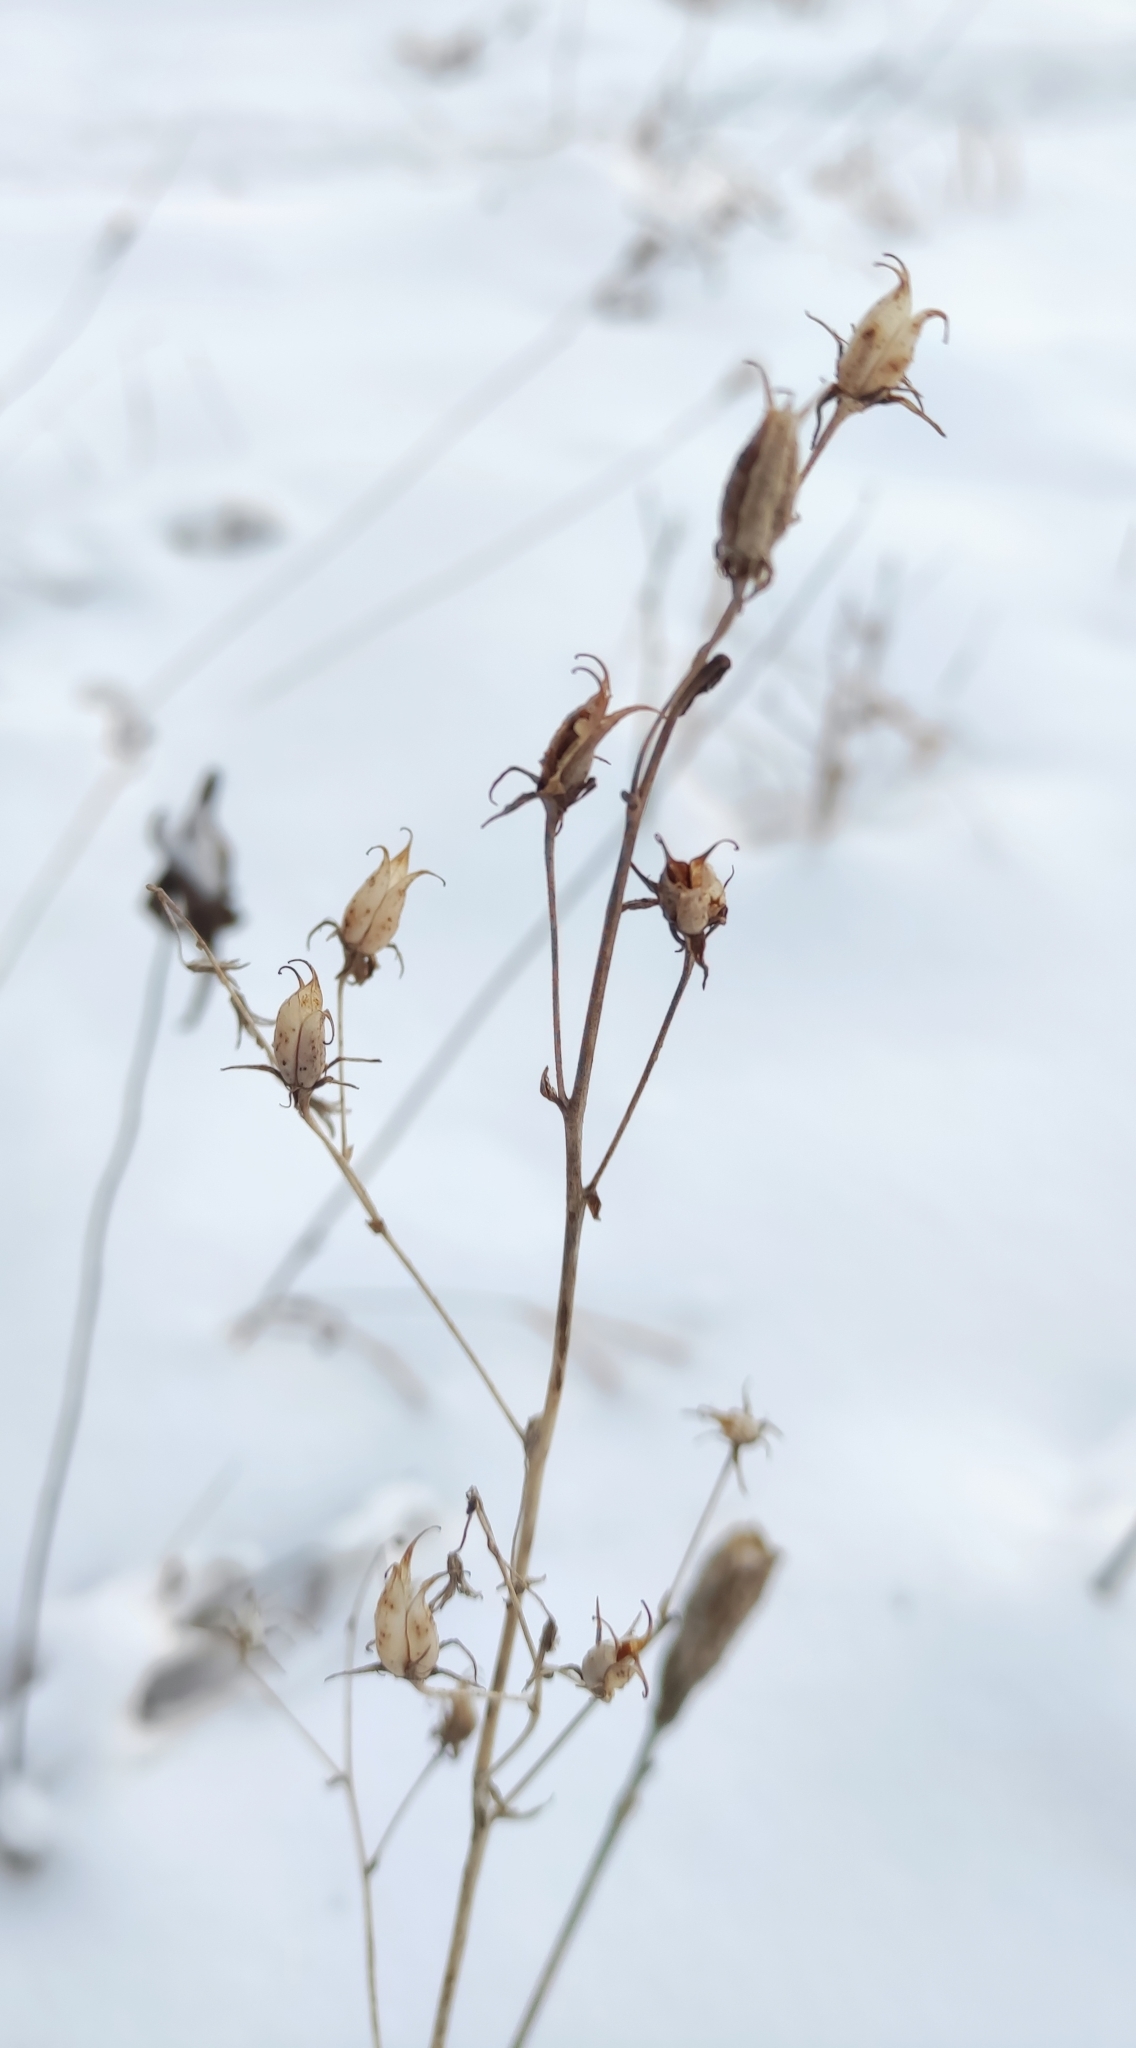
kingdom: Plantae
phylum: Tracheophyta
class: Liliopsida
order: Liliales
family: Melanthiaceae
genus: Anticlea
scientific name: Anticlea sibirica
